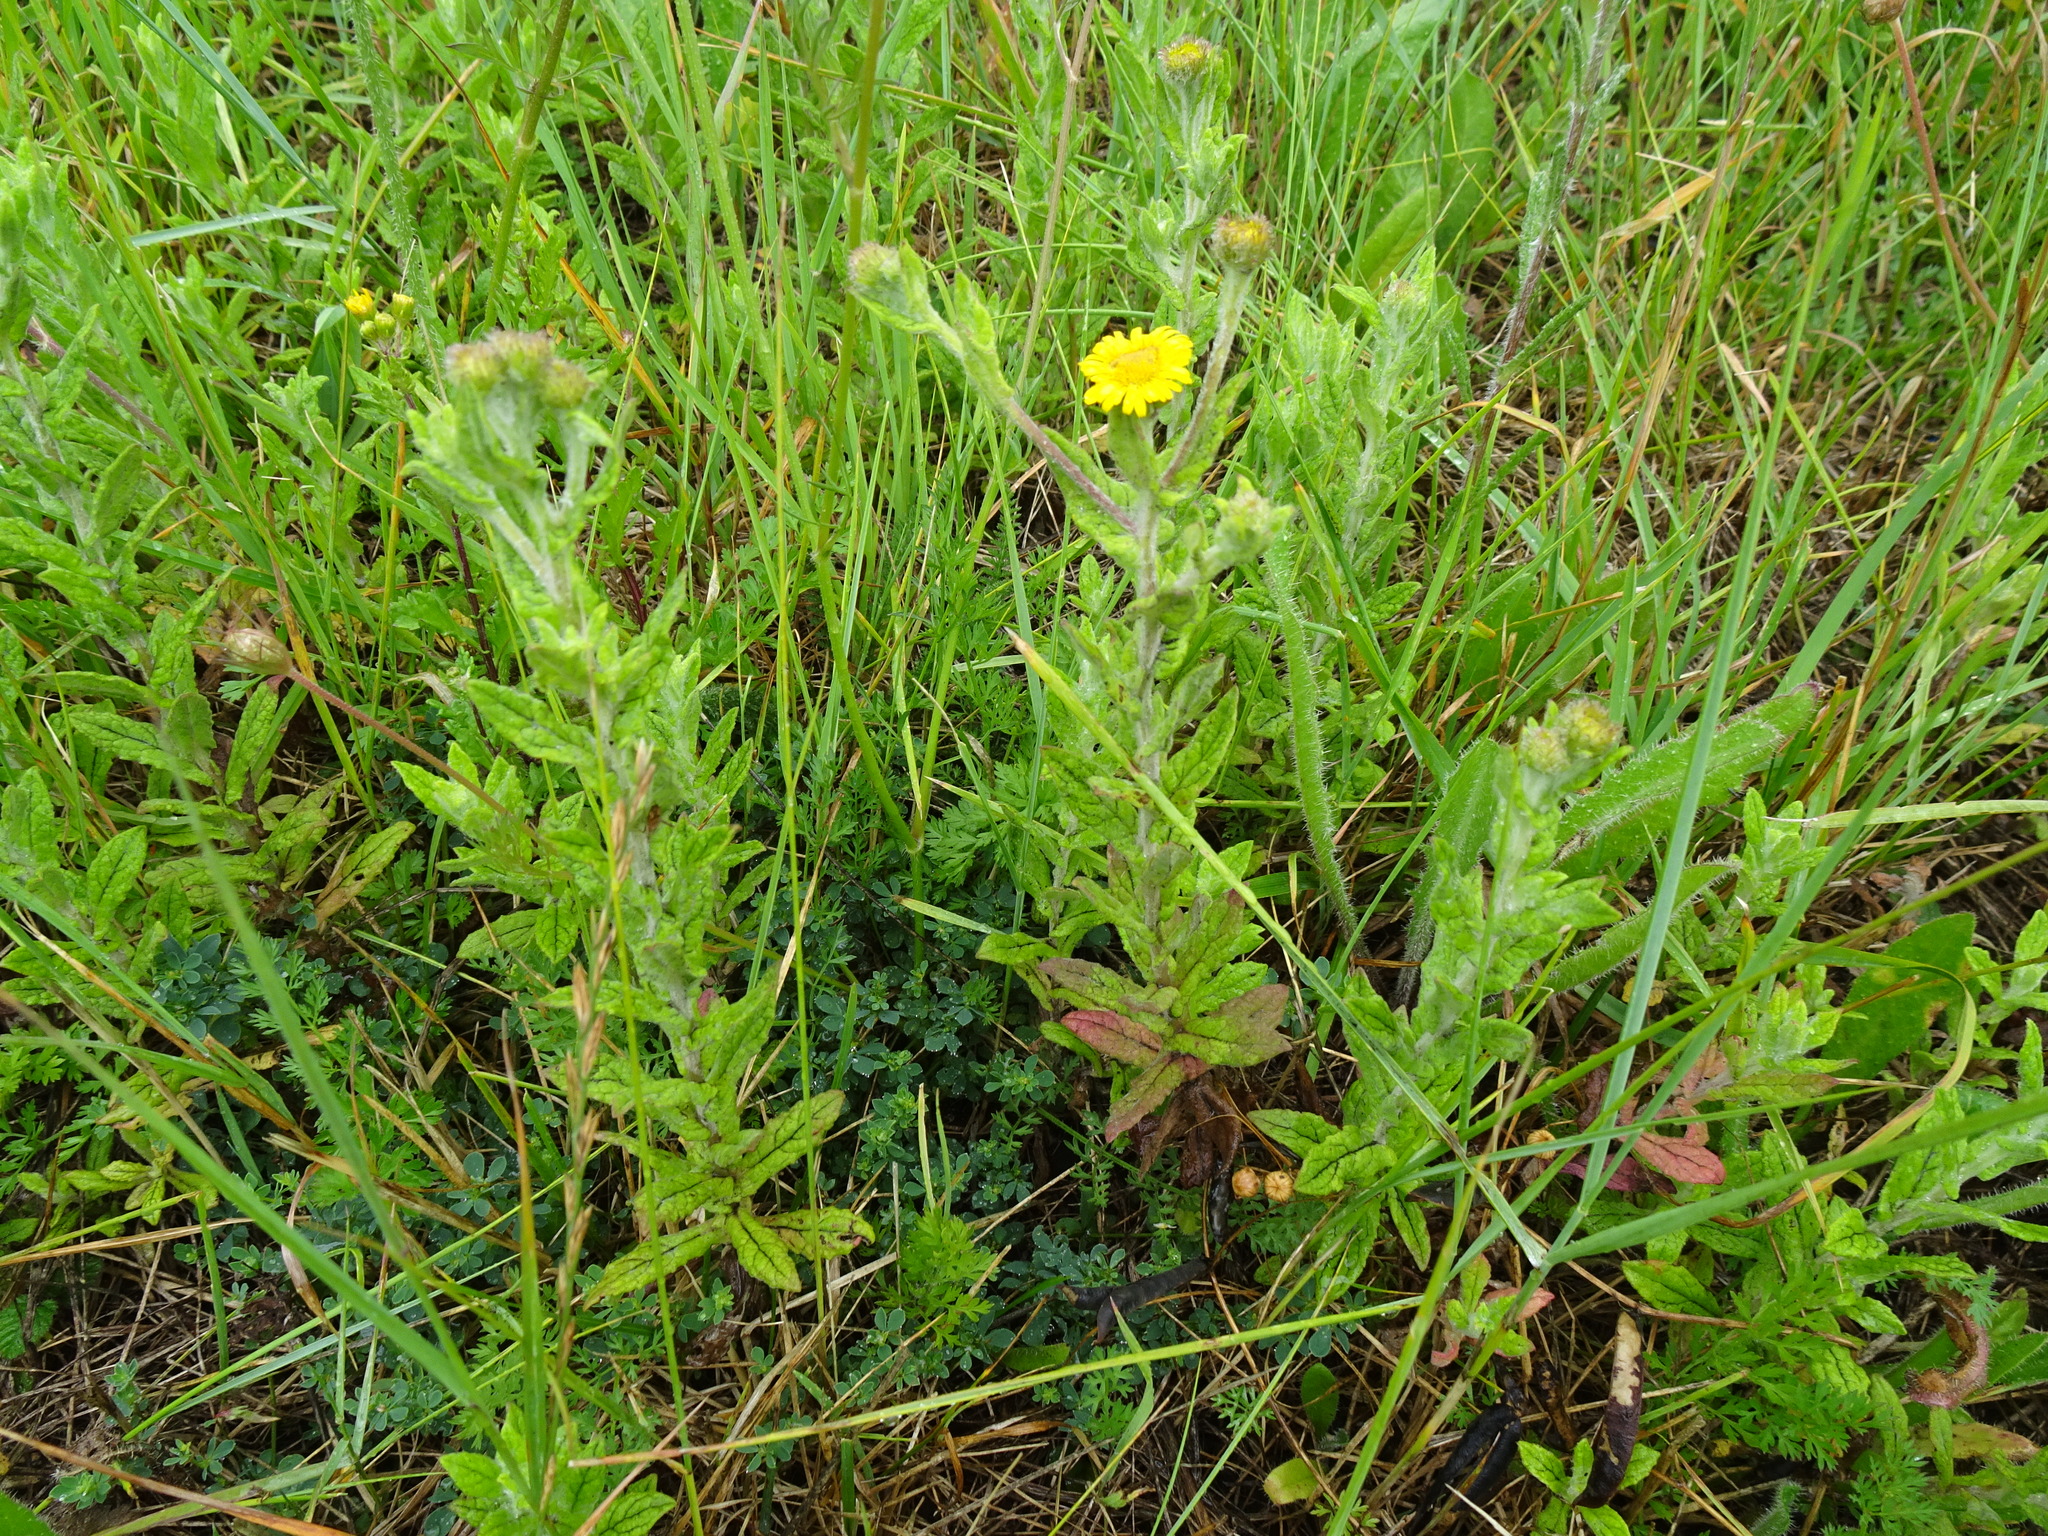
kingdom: Plantae
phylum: Tracheophyta
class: Magnoliopsida
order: Asterales
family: Asteraceae
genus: Pulicaria
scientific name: Pulicaria dysenterica
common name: Common fleabane
